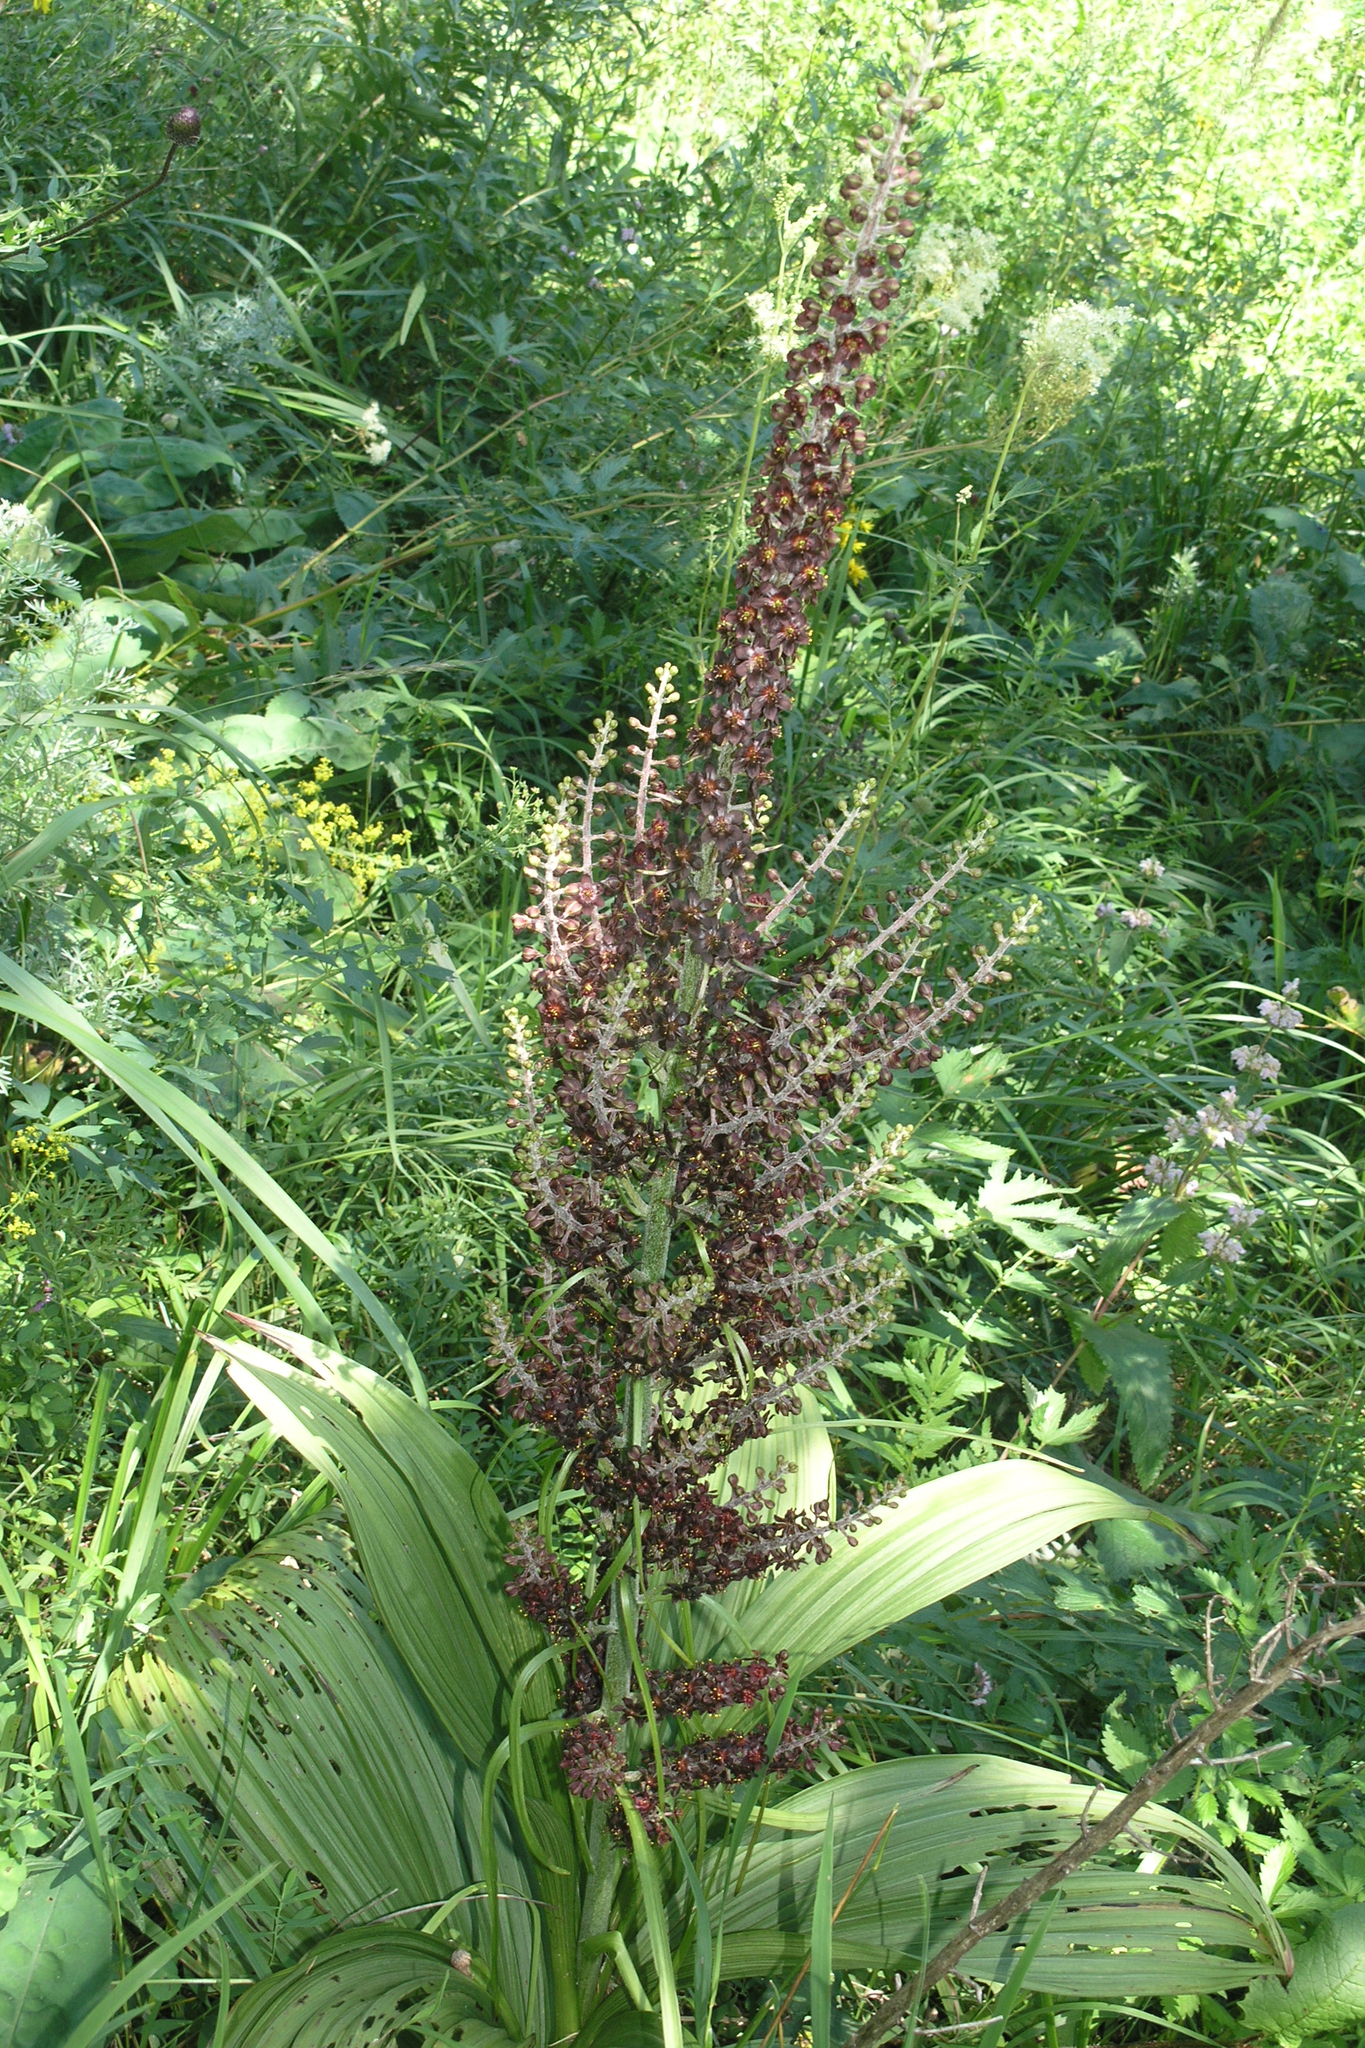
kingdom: Plantae
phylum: Tracheophyta
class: Liliopsida
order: Liliales
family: Melanthiaceae
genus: Veratrum
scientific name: Veratrum nigrum
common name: Black veratrum
